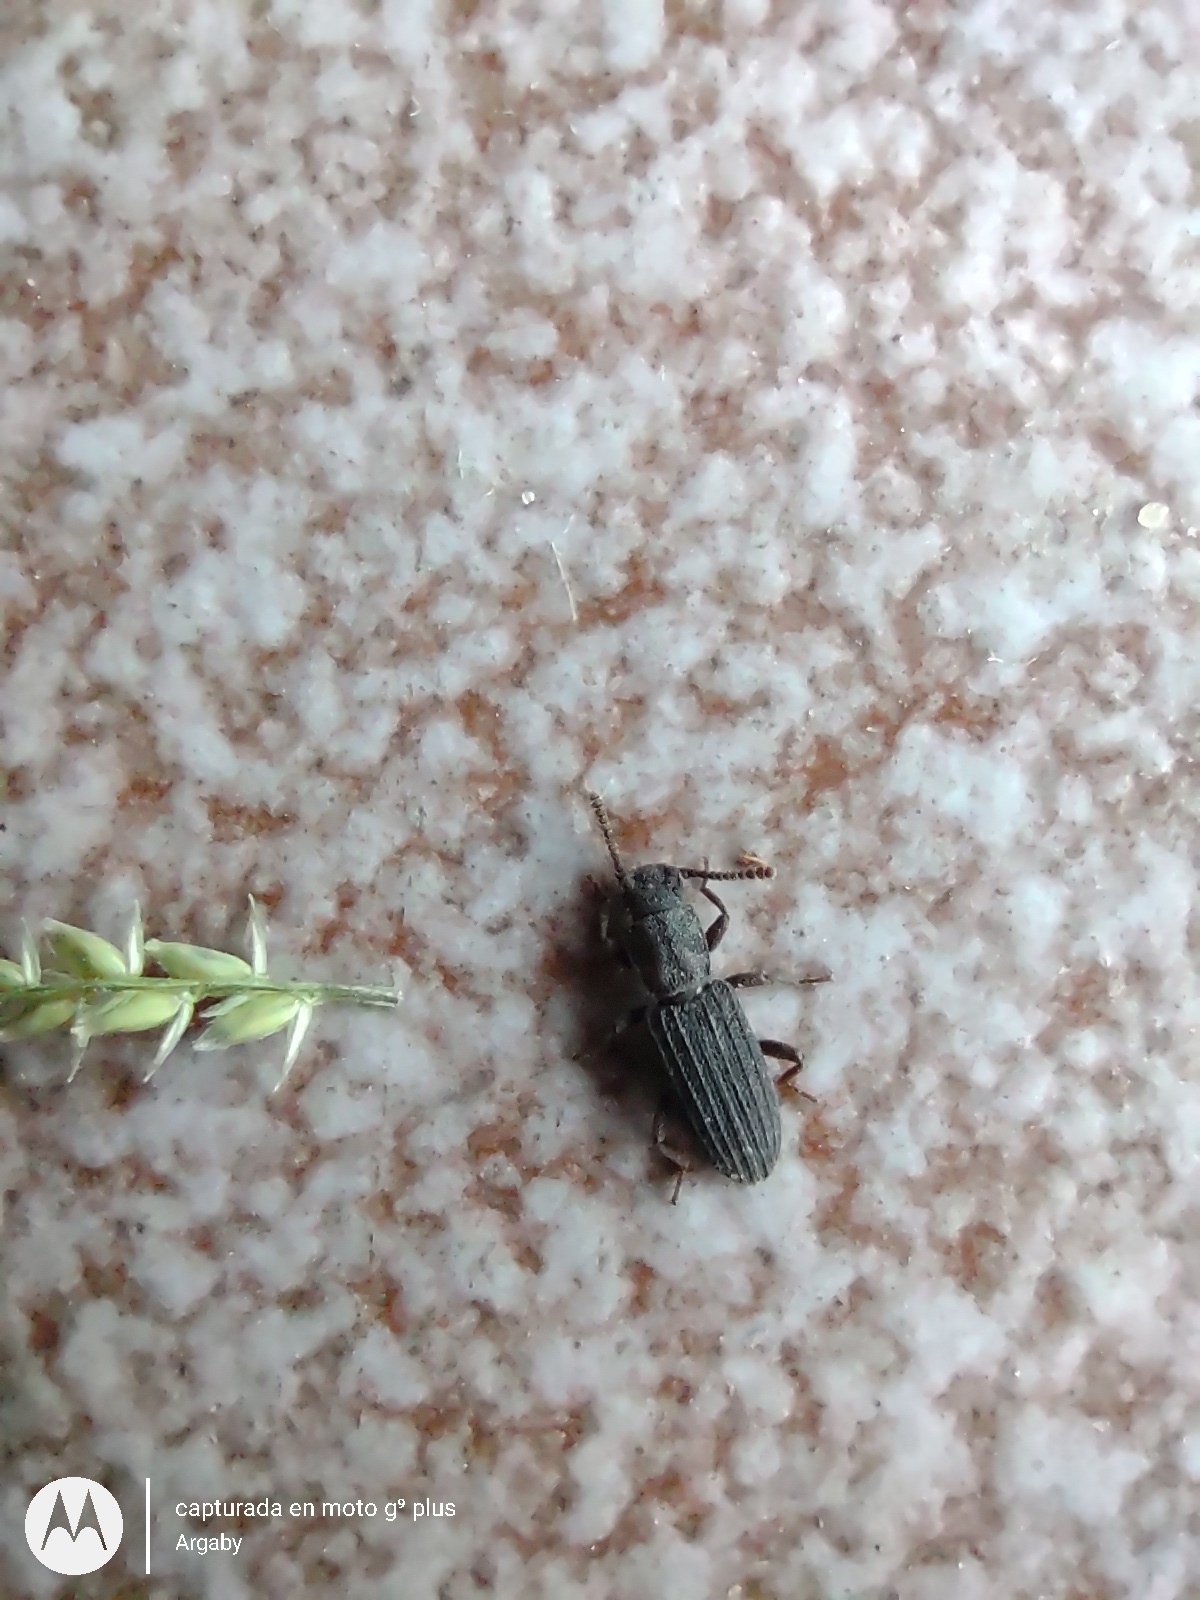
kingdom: Animalia
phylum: Arthropoda
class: Insecta
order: Coleoptera
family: Tenebrionidae
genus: Rhypasma
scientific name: Rhypasma
